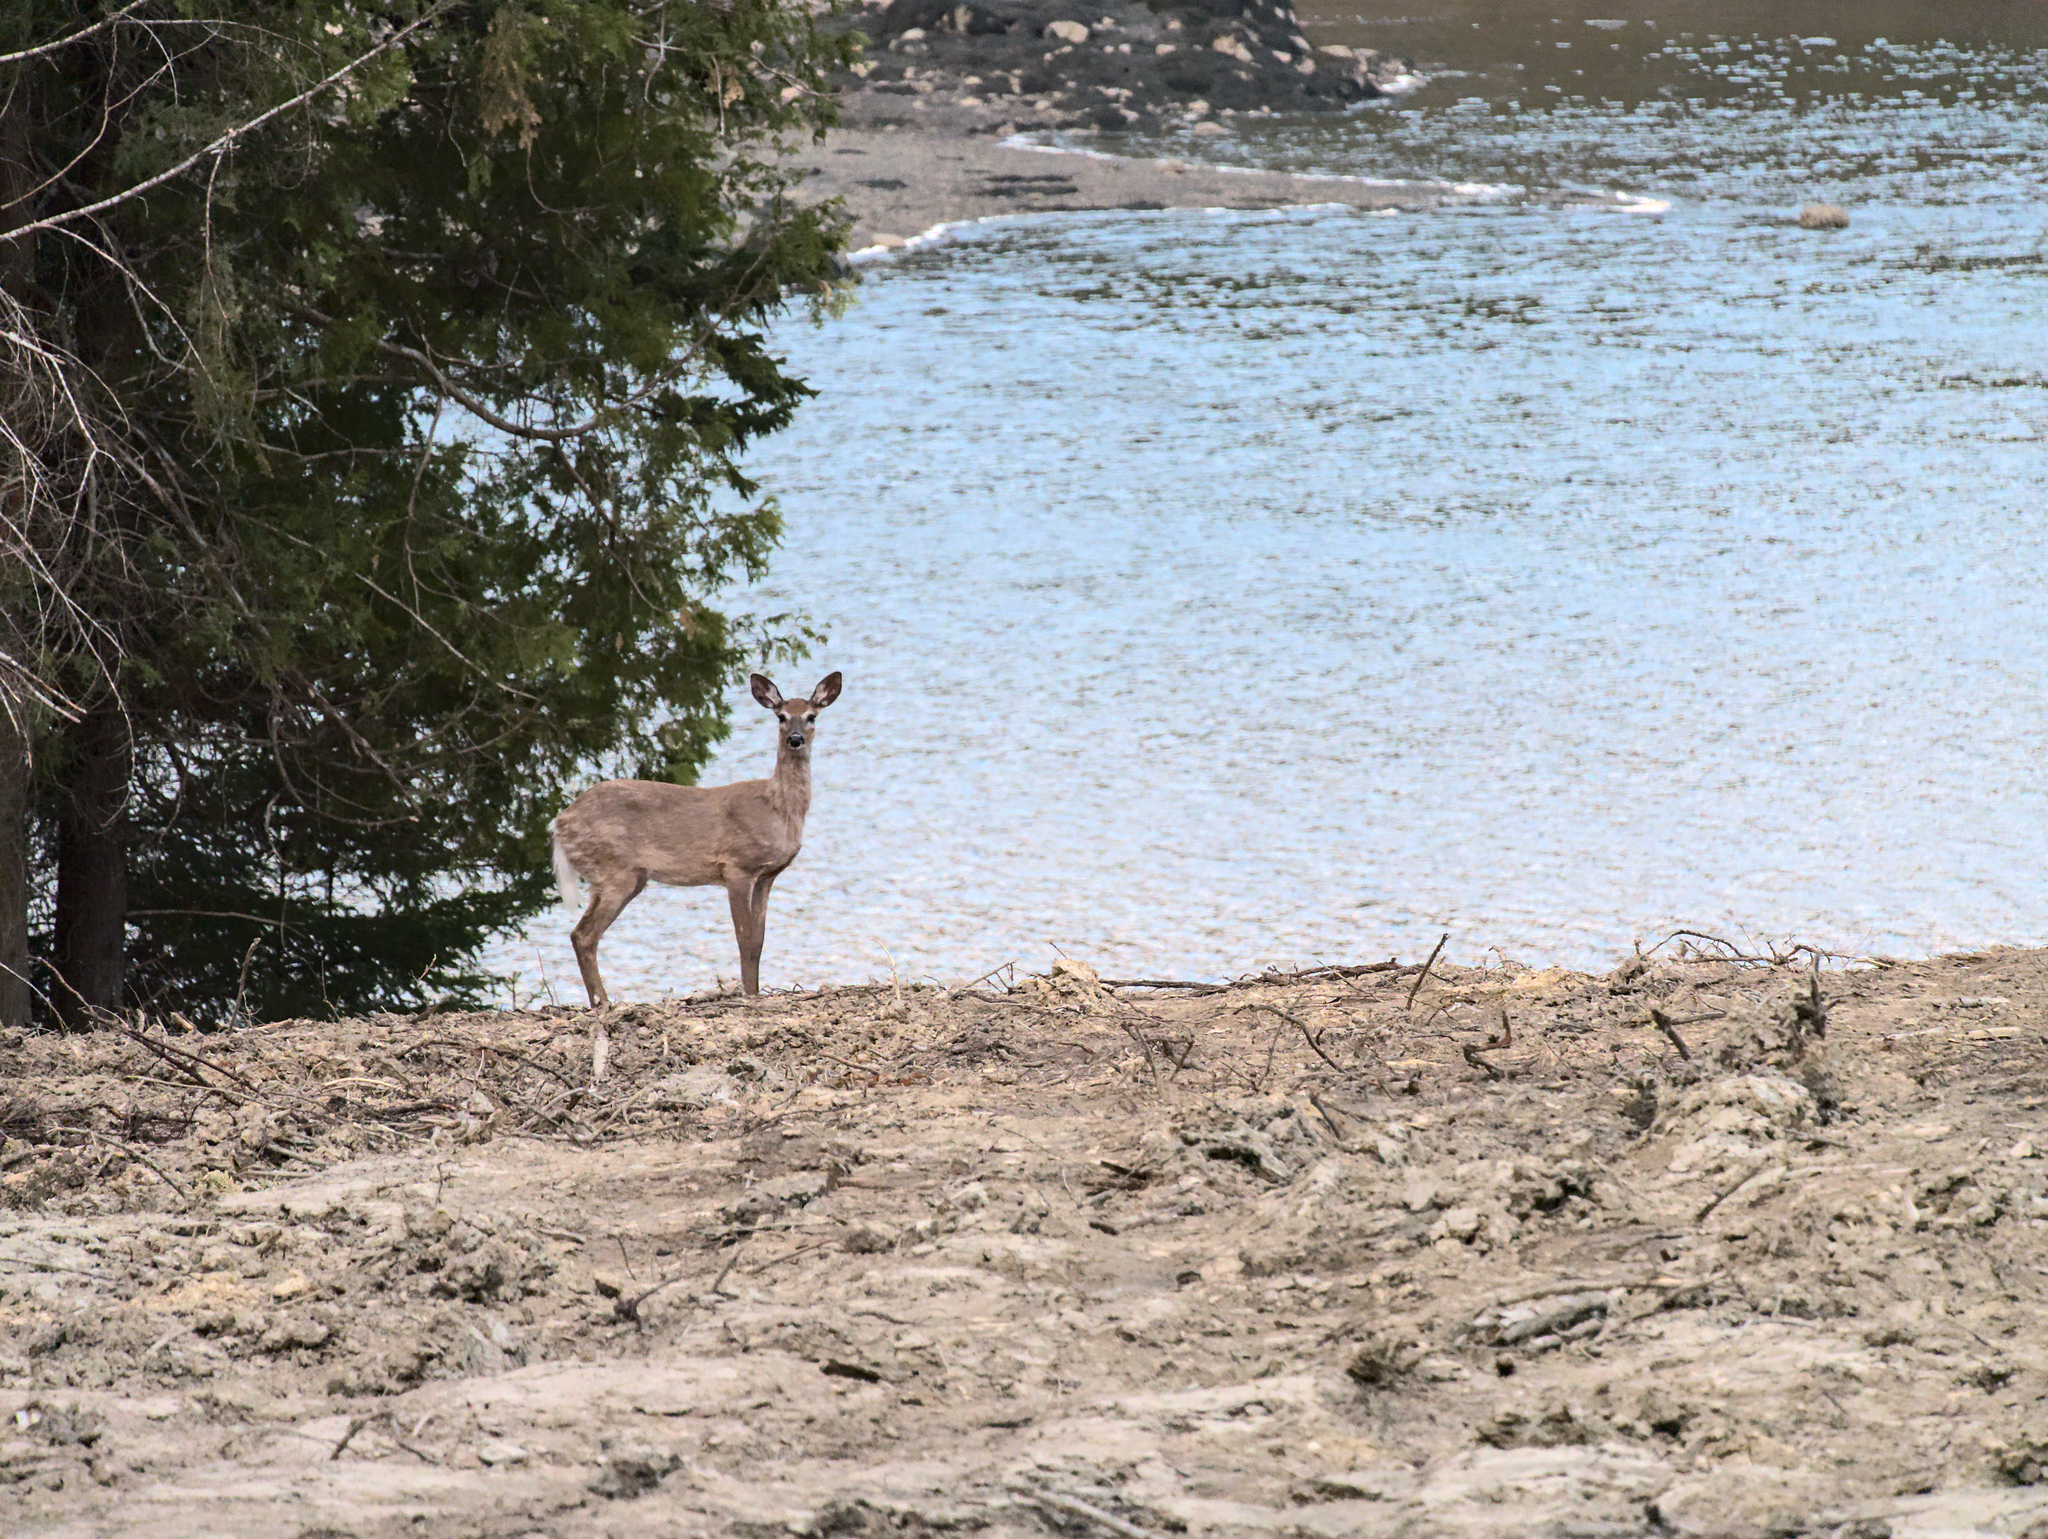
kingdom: Animalia
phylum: Chordata
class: Mammalia
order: Artiodactyla
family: Cervidae
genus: Odocoileus
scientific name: Odocoileus virginianus
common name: White-tailed deer
